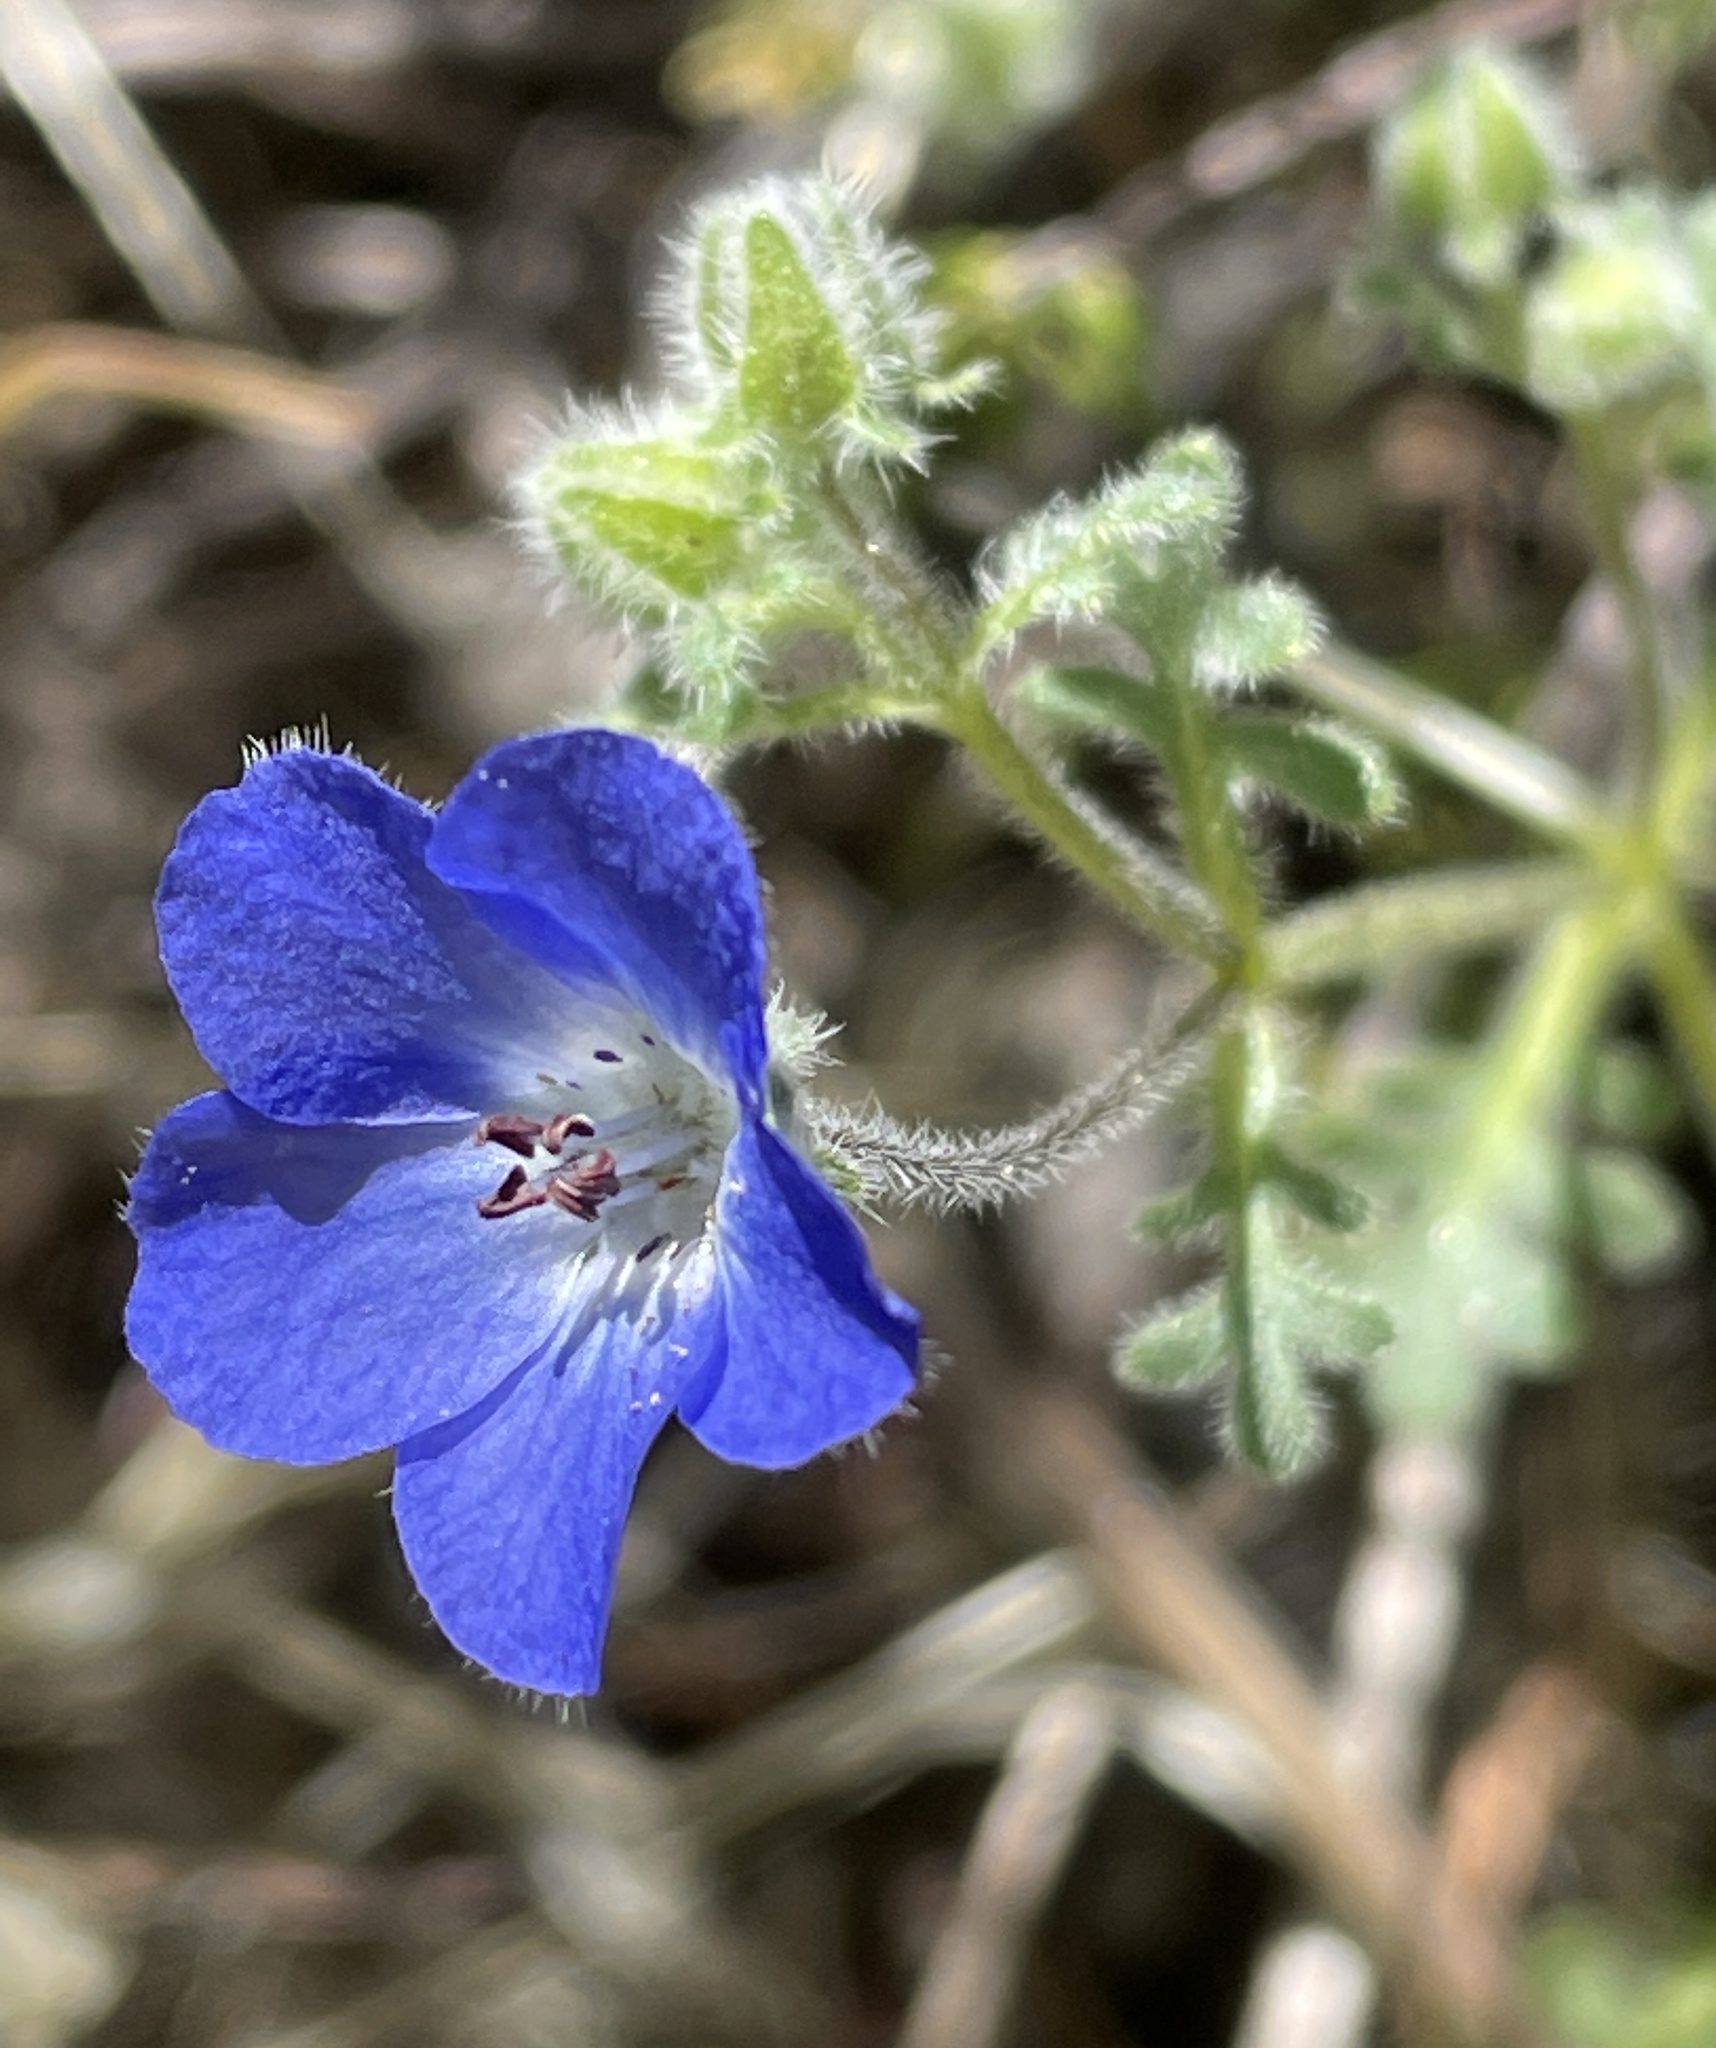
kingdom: Plantae
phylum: Tracheophyta
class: Magnoliopsida
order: Boraginales
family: Hydrophyllaceae
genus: Nemophila
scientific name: Nemophila menziesii
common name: Baby's-blue-eyes
